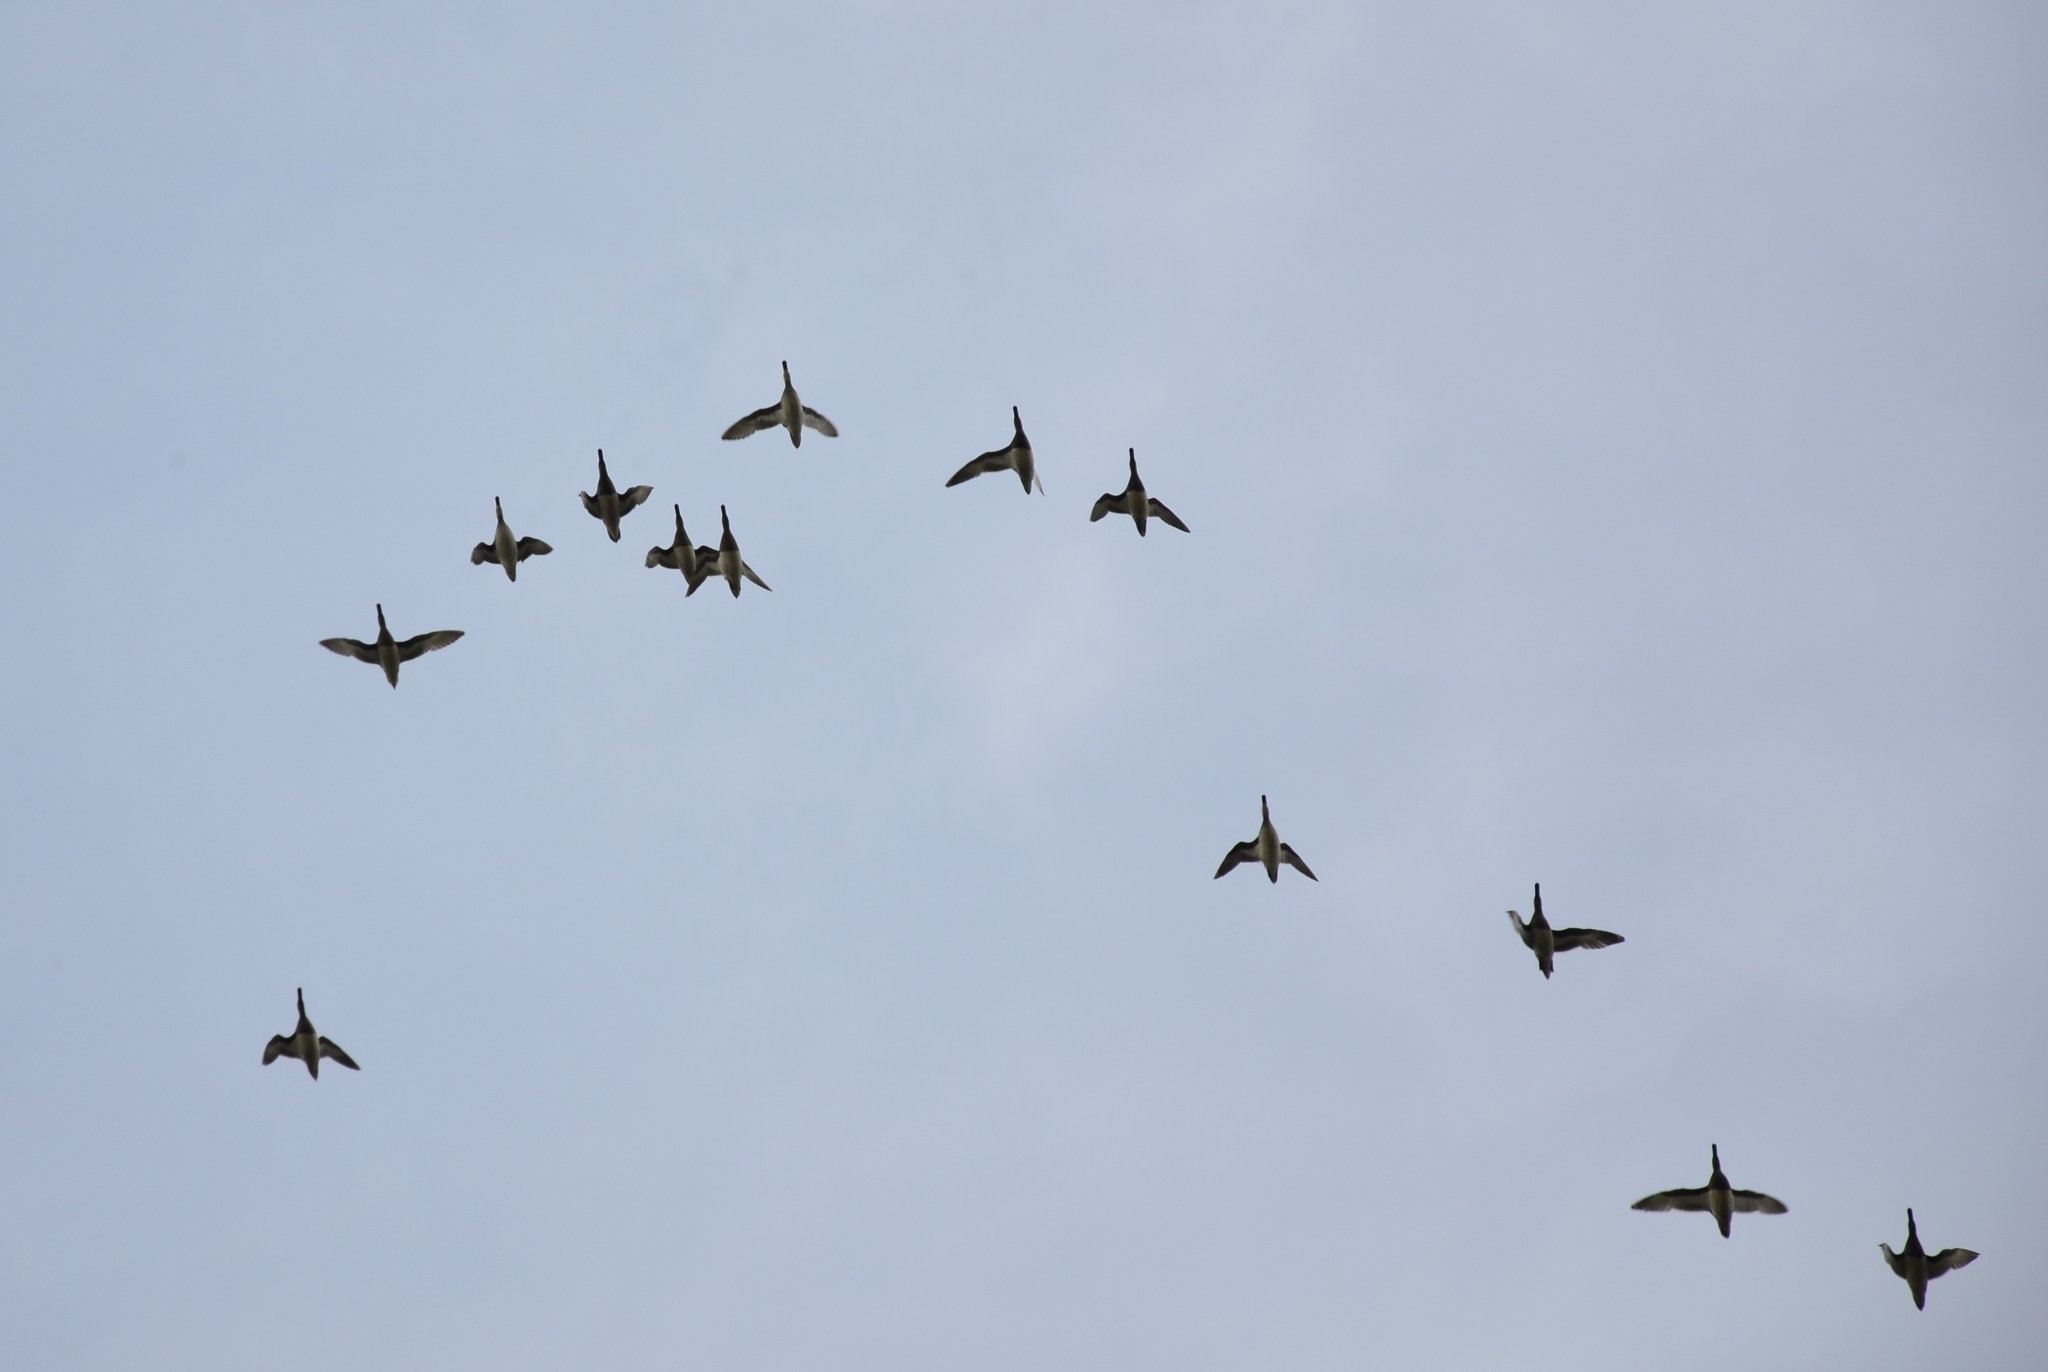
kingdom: Animalia
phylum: Chordata
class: Aves
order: Anseriformes
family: Anatidae
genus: Spatula
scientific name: Spatula querquedula
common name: Garganey
